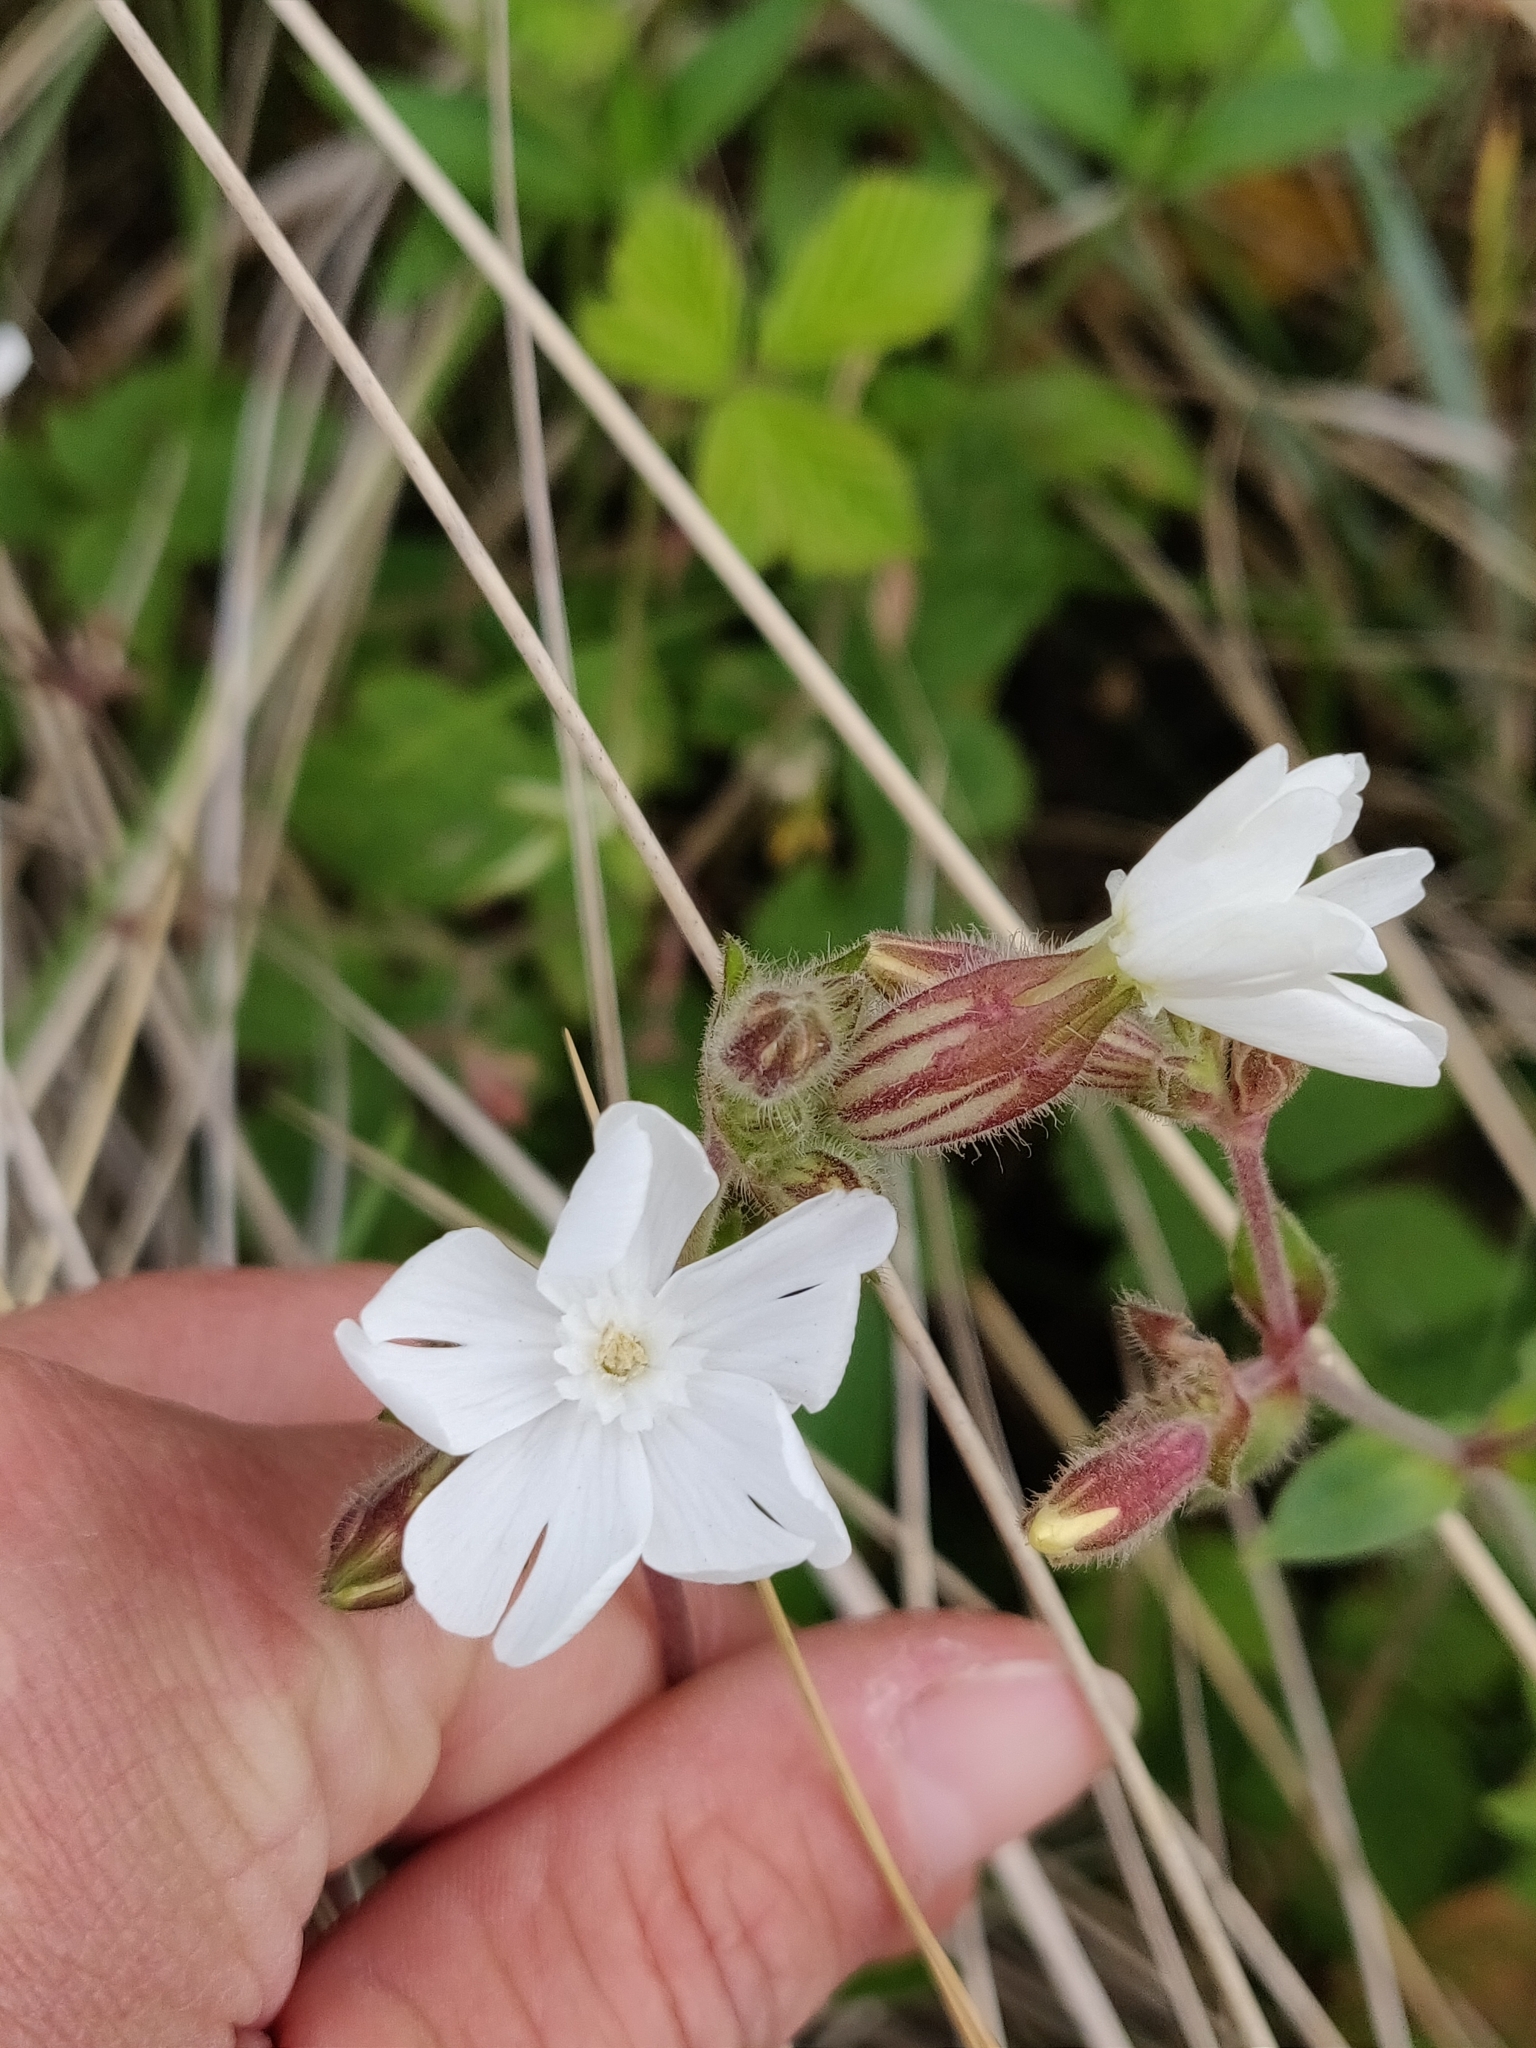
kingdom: Plantae
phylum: Tracheophyta
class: Magnoliopsida
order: Caryophyllales
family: Caryophyllaceae
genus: Silene
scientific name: Silene latifolia
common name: White campion
